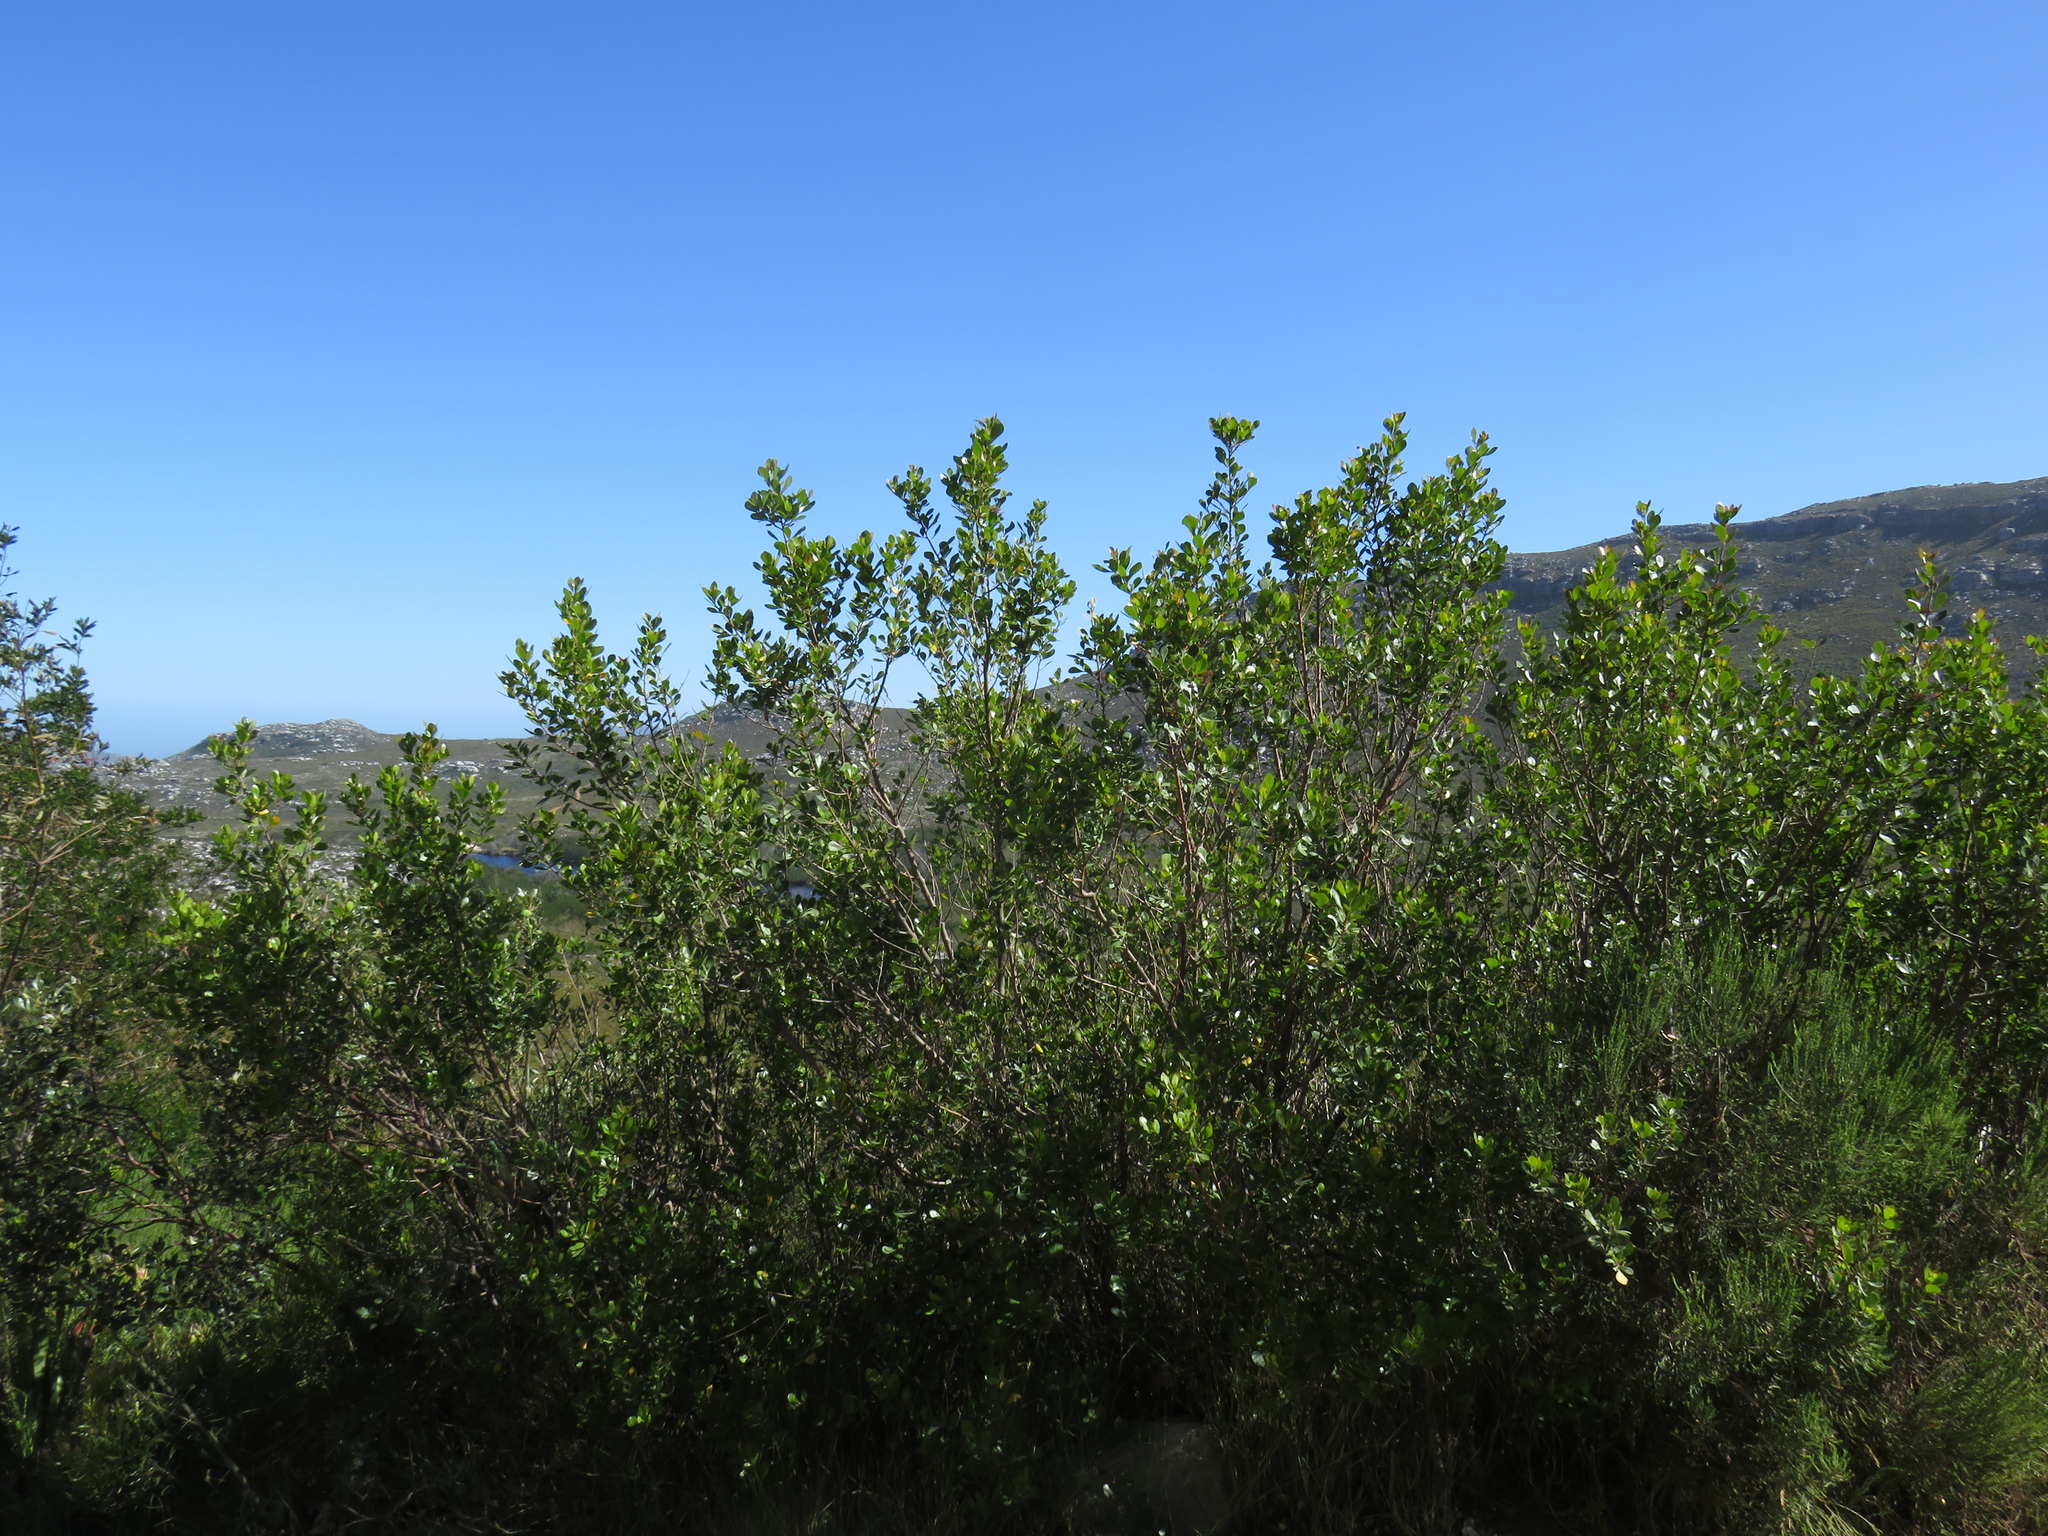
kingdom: Plantae
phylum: Tracheophyta
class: Magnoliopsida
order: Sapindales
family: Anacardiaceae
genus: Searsia
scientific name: Searsia lucida
